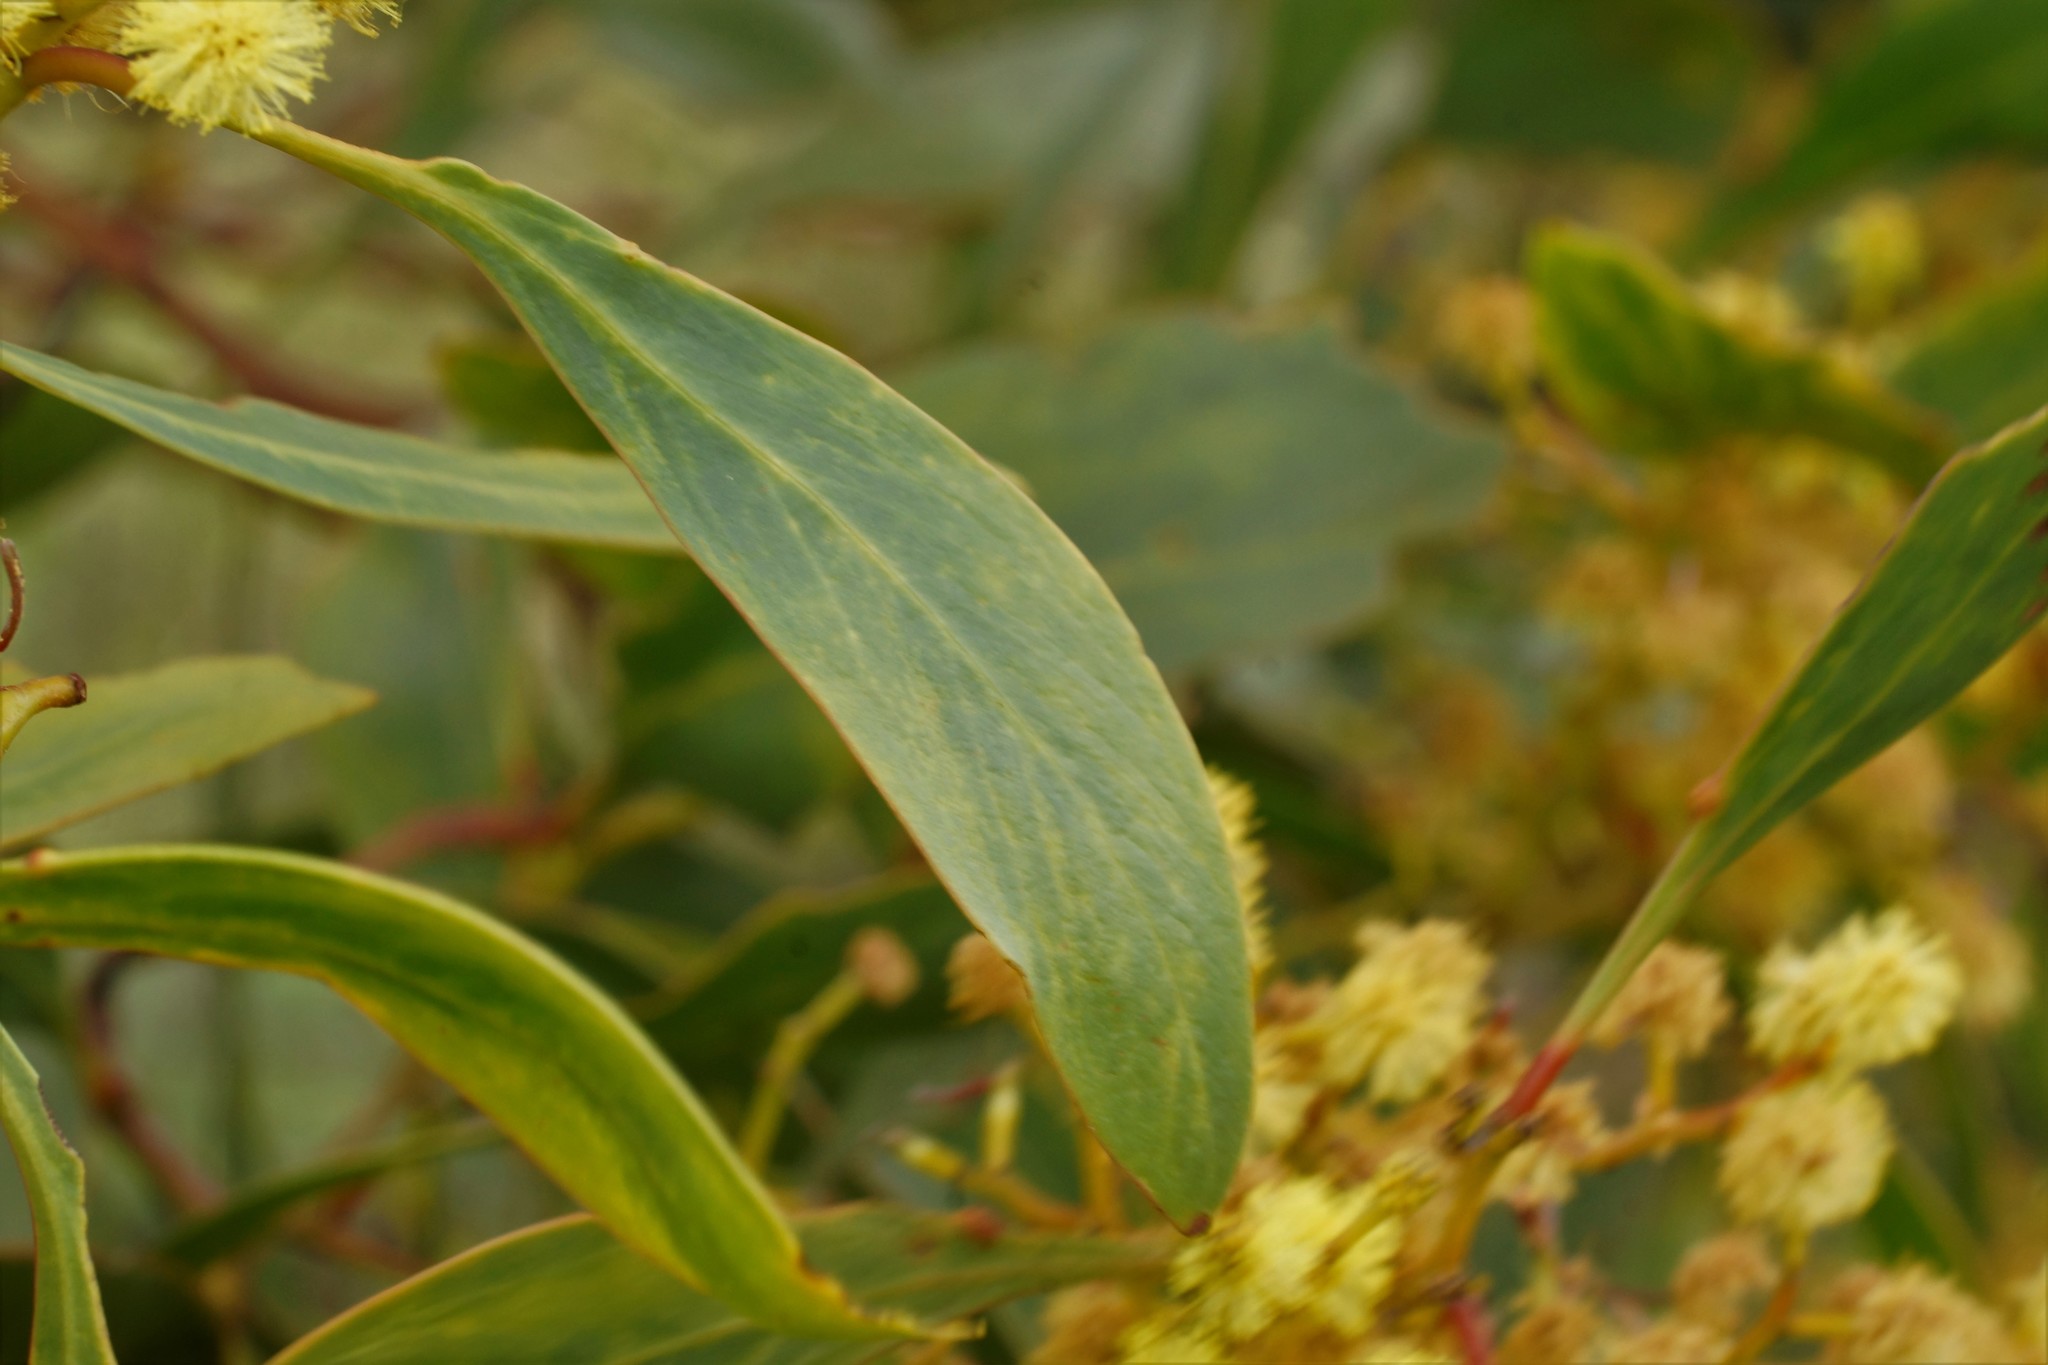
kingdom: Plantae
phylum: Tracheophyta
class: Magnoliopsida
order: Fabales
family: Fabaceae
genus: Acacia
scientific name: Acacia pycnantha
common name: Golden wattle
